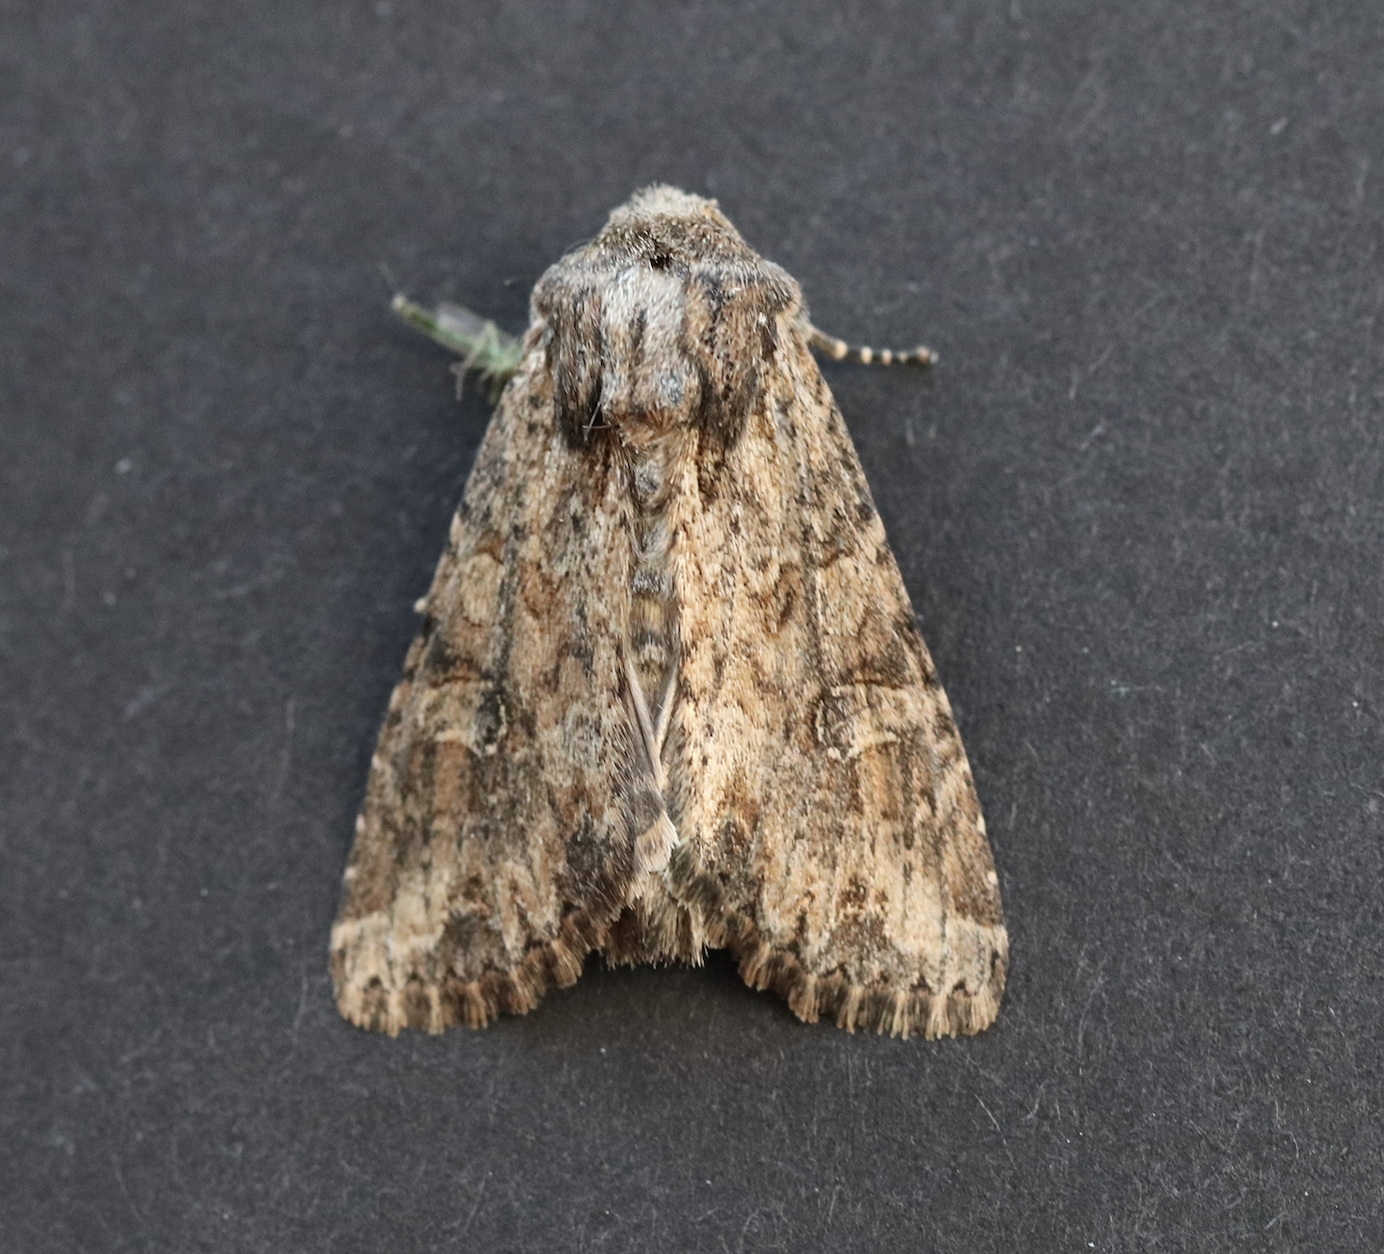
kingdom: Animalia
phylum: Arthropoda
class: Insecta
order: Lepidoptera
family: Noctuidae
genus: Apamea
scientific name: Apamea anceps
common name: Large nutmeg
